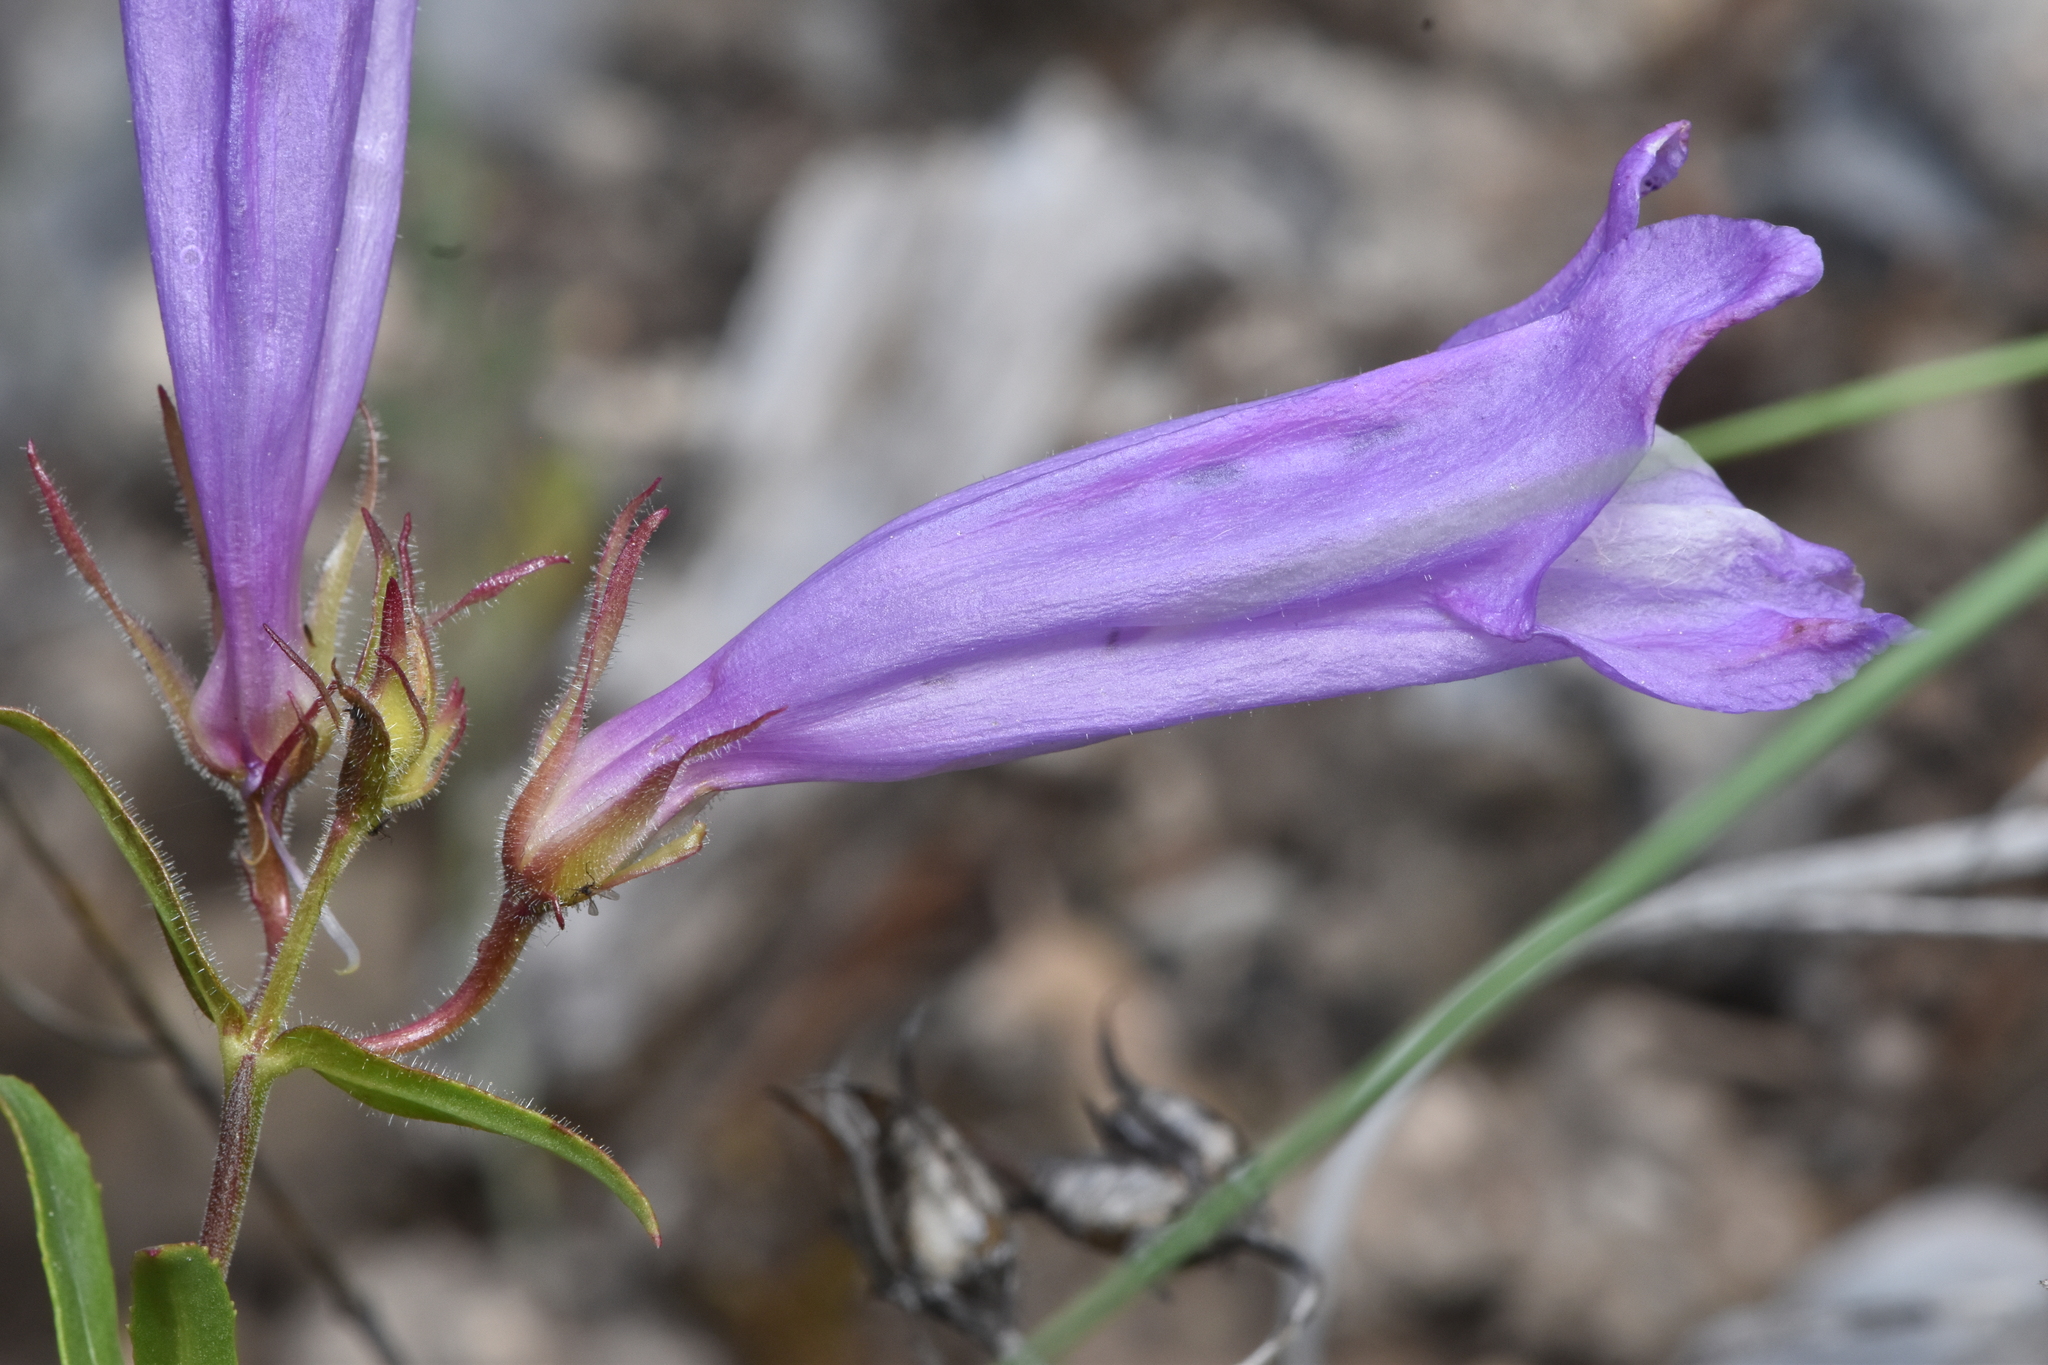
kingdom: Plantae
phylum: Tracheophyta
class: Magnoliopsida
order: Lamiales
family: Plantaginaceae
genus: Penstemon
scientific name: Penstemon fruticosus
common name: Bush penstemon
